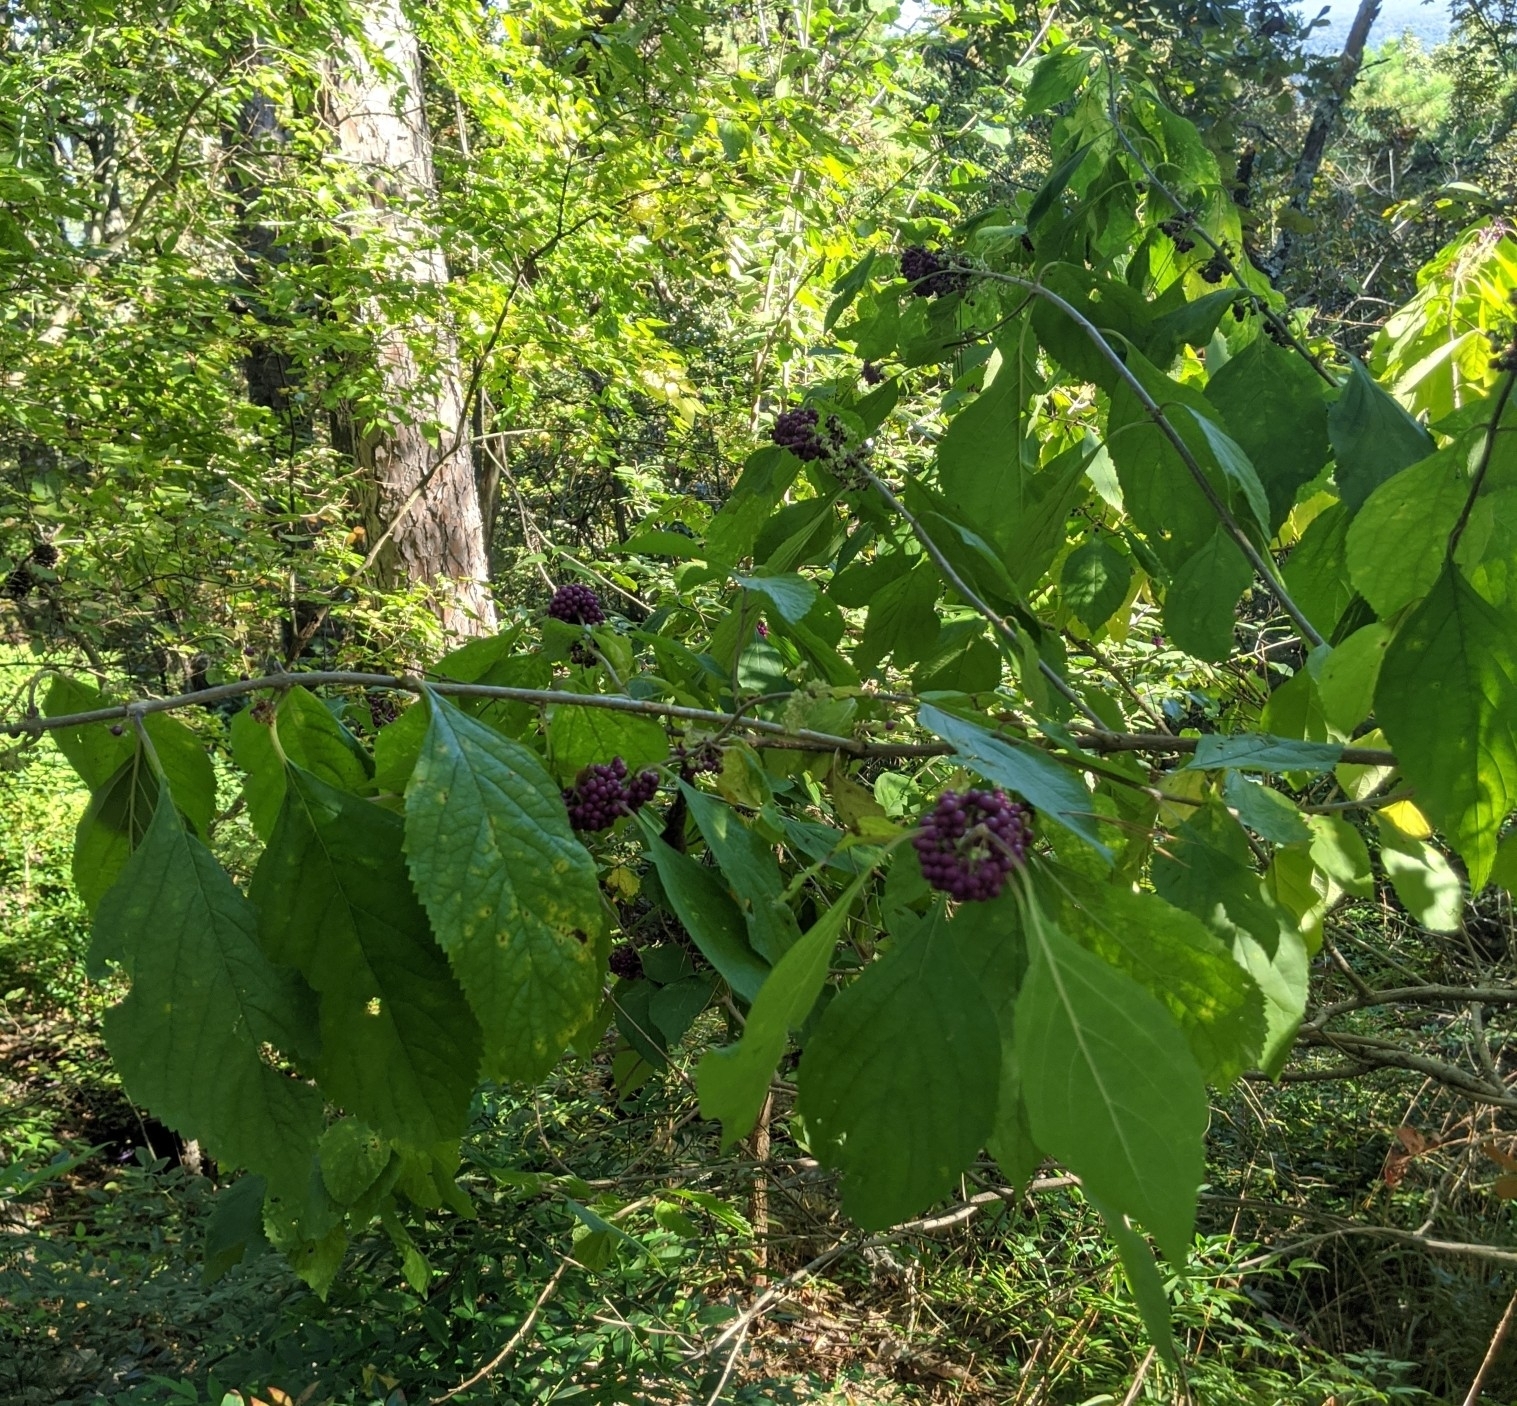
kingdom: Plantae
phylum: Tracheophyta
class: Magnoliopsida
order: Lamiales
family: Lamiaceae
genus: Callicarpa
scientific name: Callicarpa americana
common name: American beautyberry
